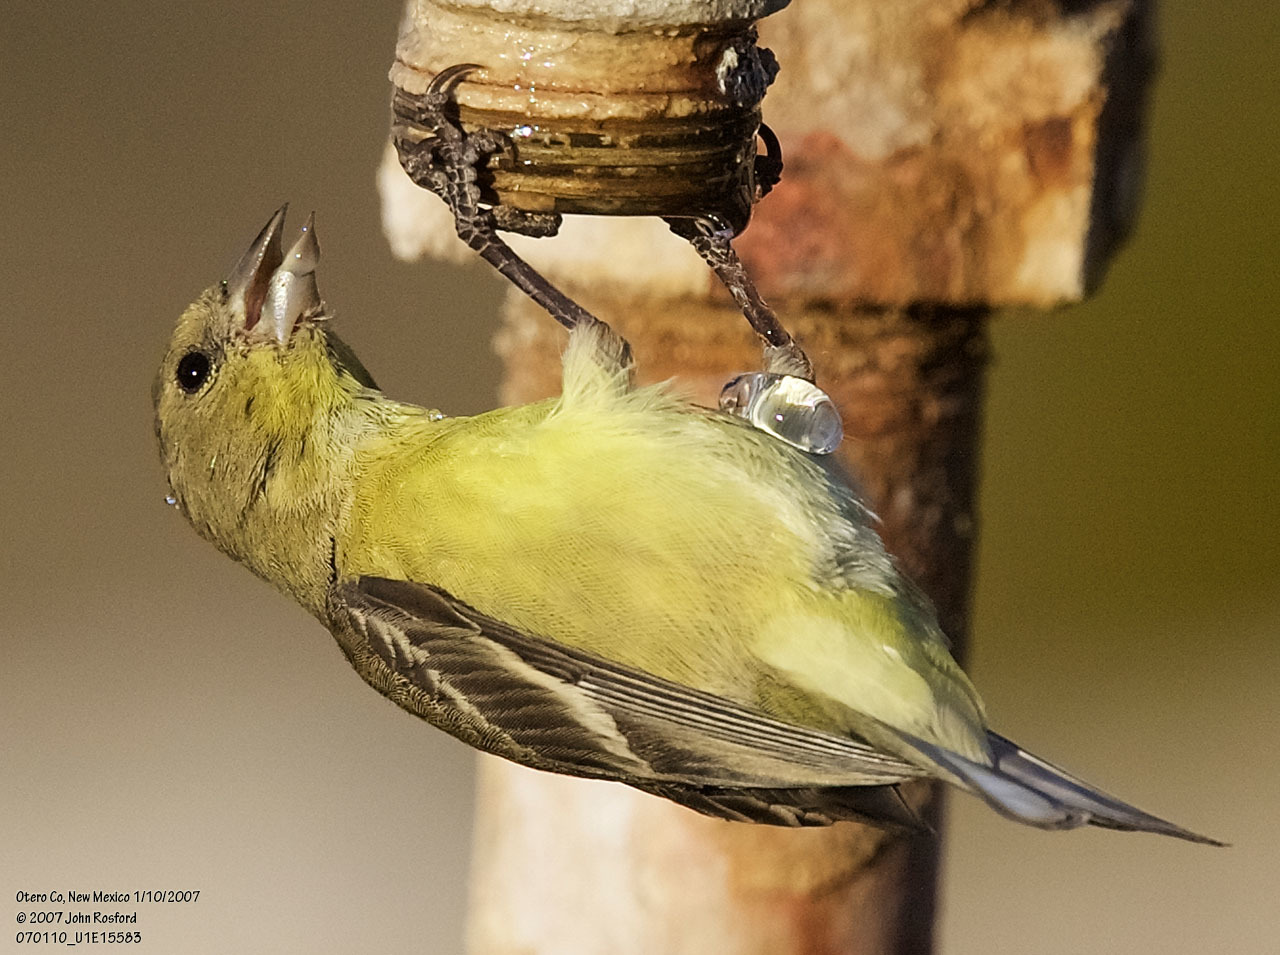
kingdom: Animalia
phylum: Chordata
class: Aves
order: Passeriformes
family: Fringillidae
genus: Spinus
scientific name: Spinus psaltria
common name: Lesser goldfinch
